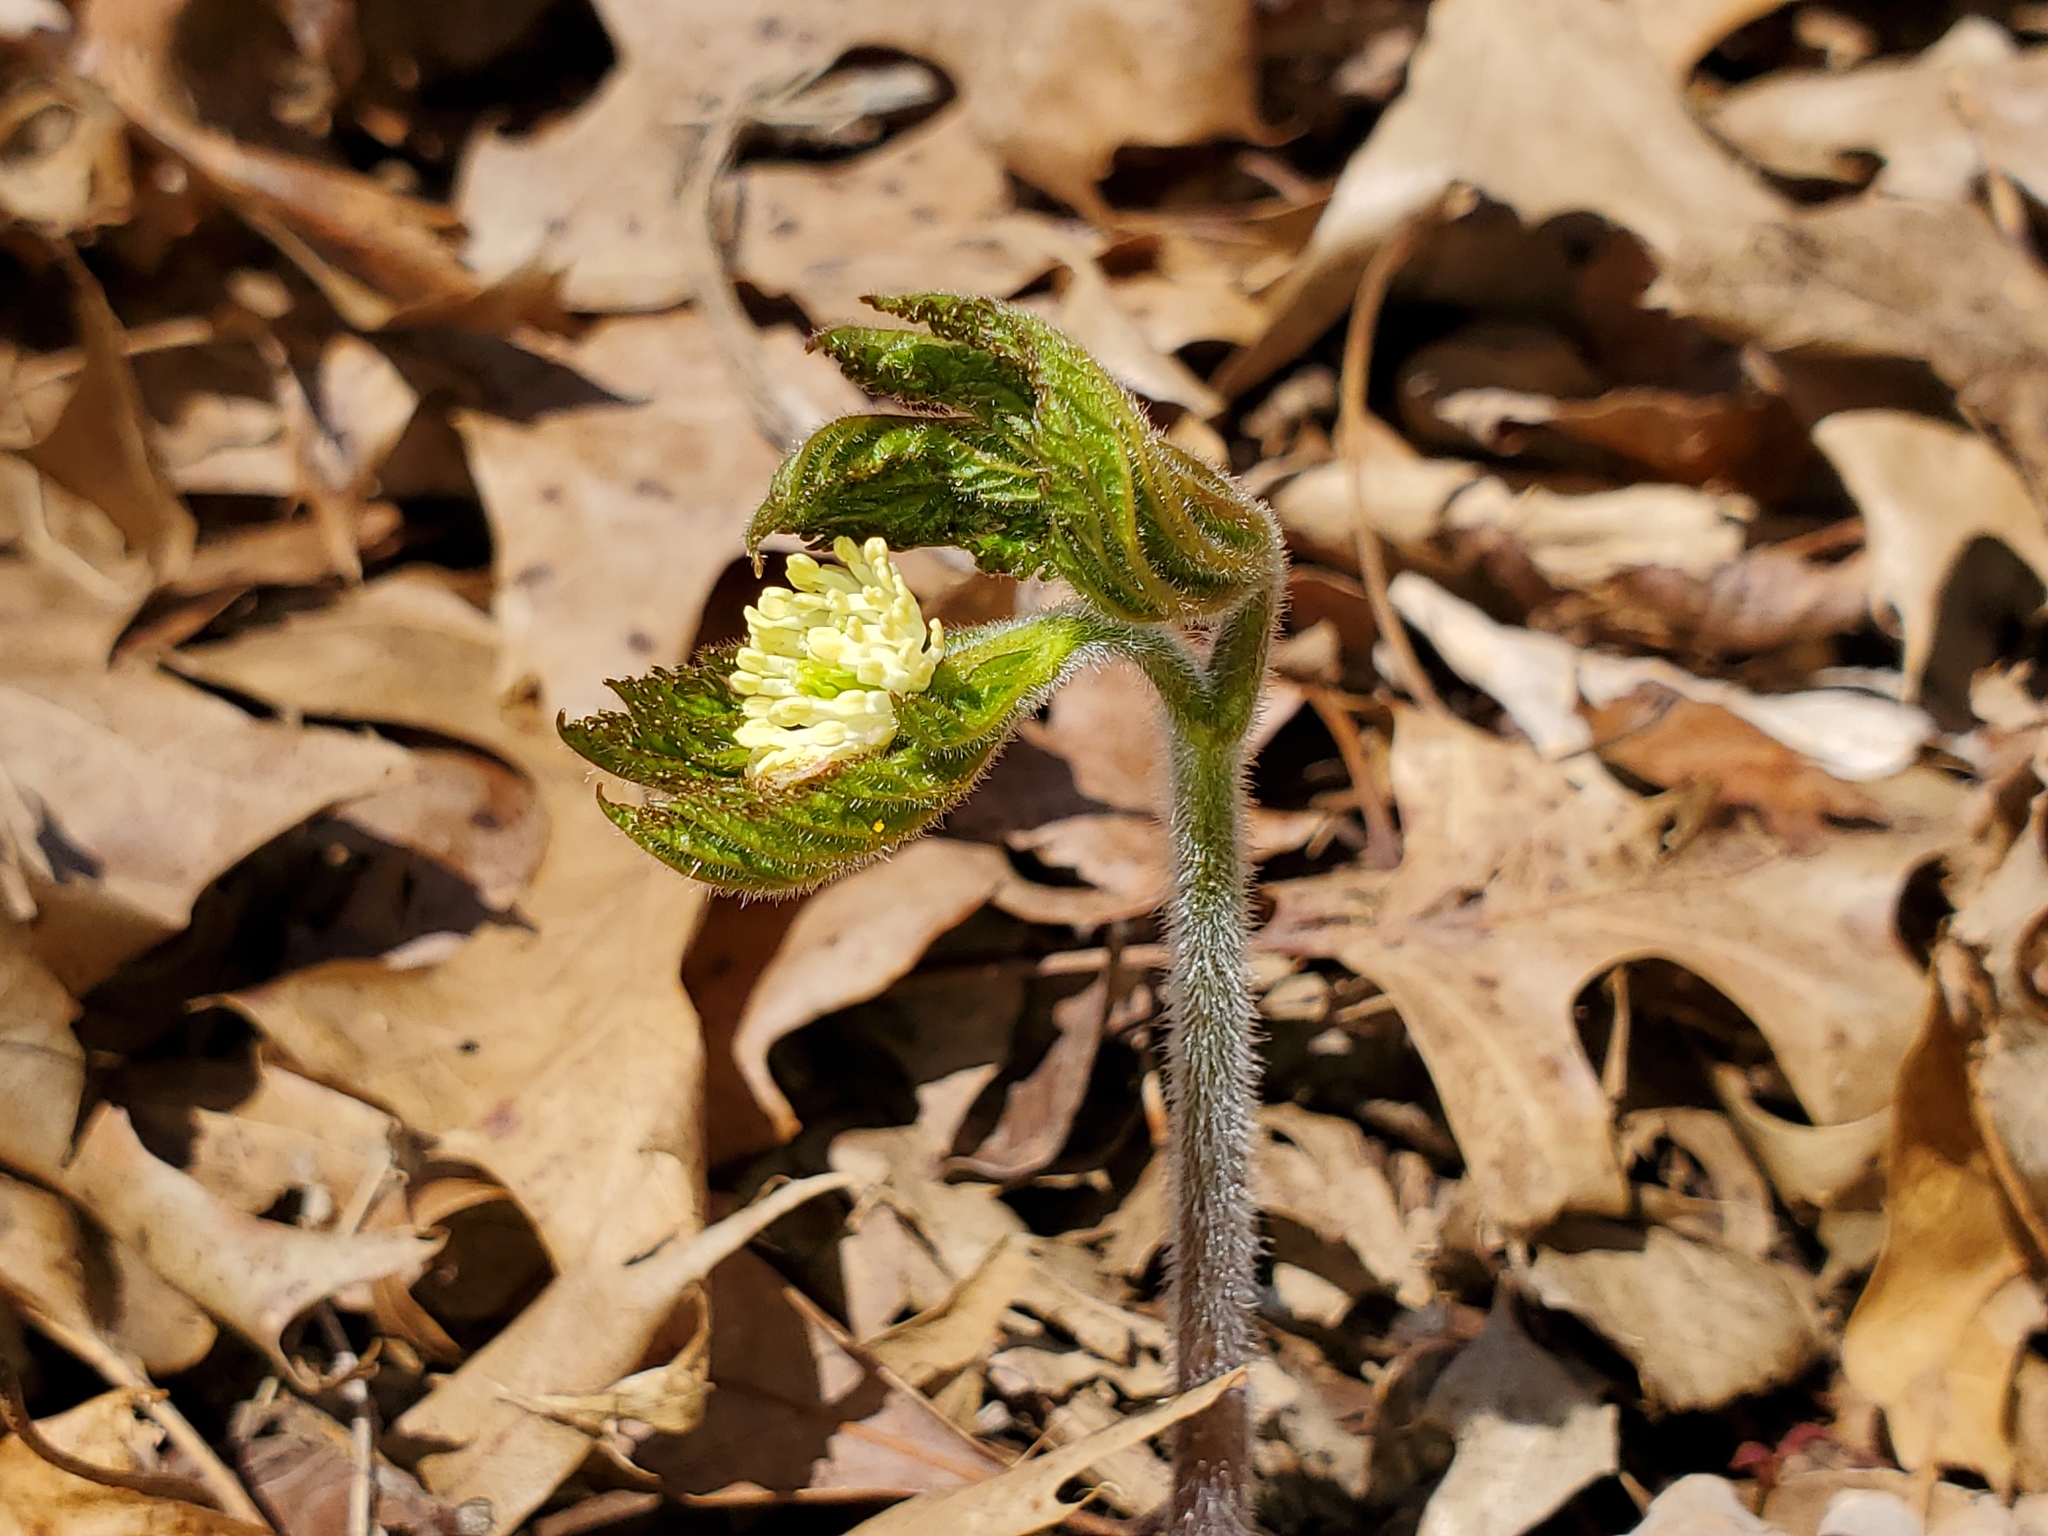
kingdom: Plantae
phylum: Tracheophyta
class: Magnoliopsida
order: Ranunculales
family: Ranunculaceae
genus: Hydrastis
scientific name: Hydrastis canadensis
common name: Goldenseal
